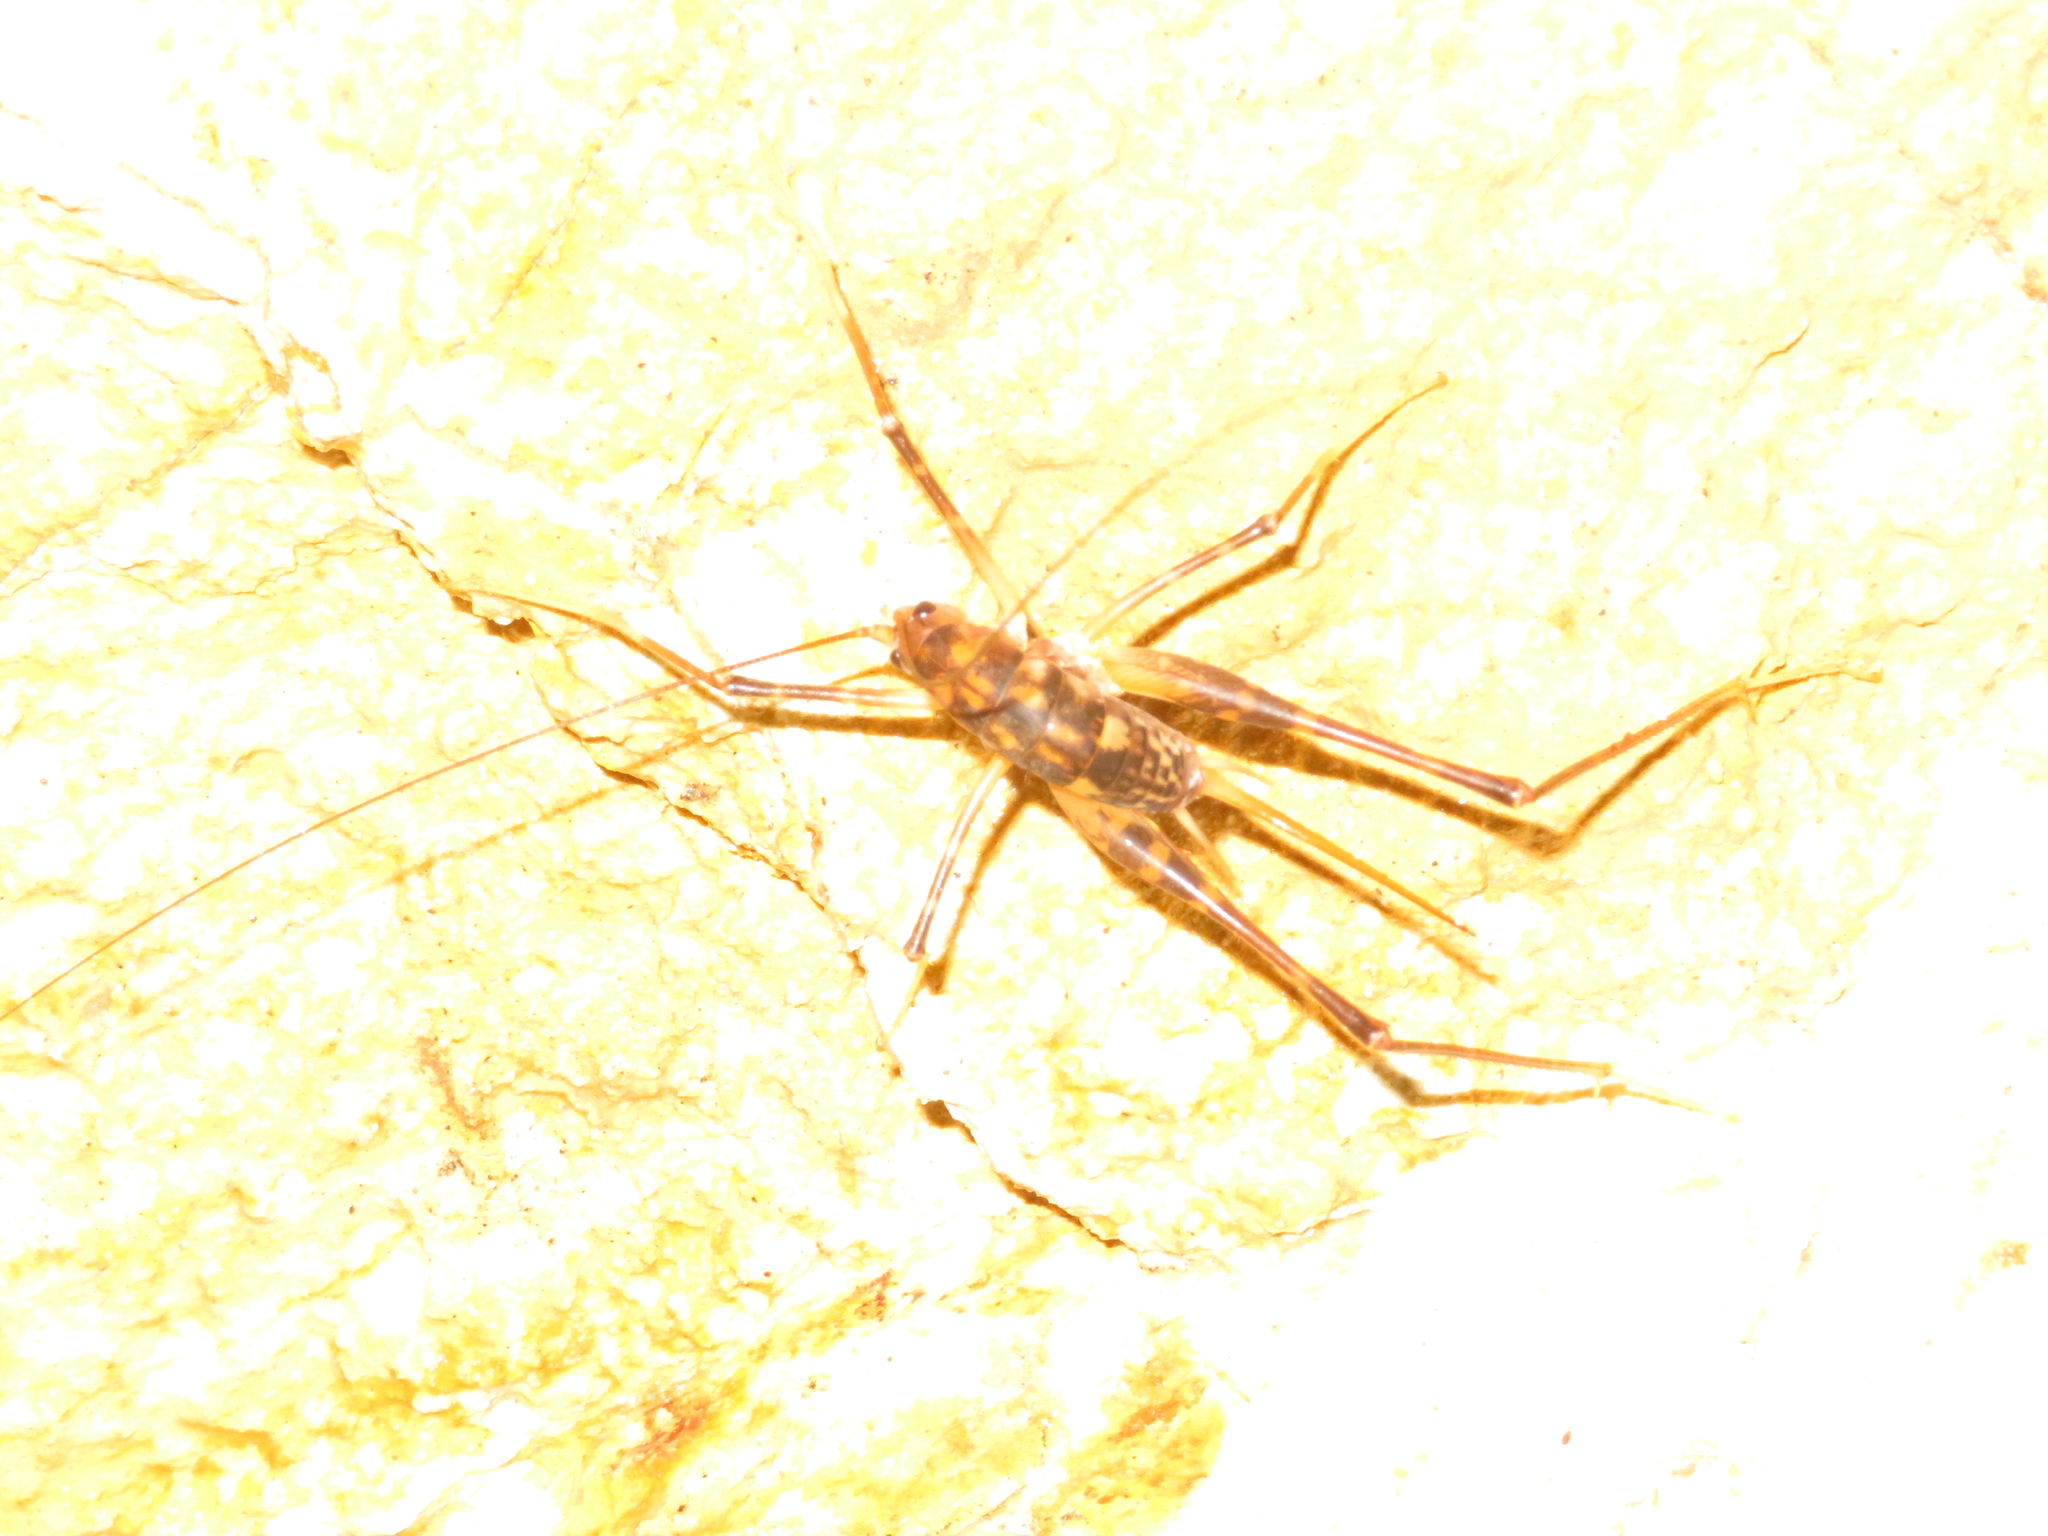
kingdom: Animalia
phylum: Arthropoda
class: Insecta
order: Orthoptera
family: Rhaphidophoridae
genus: Pachyrhamma
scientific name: Pachyrhamma cavernae
